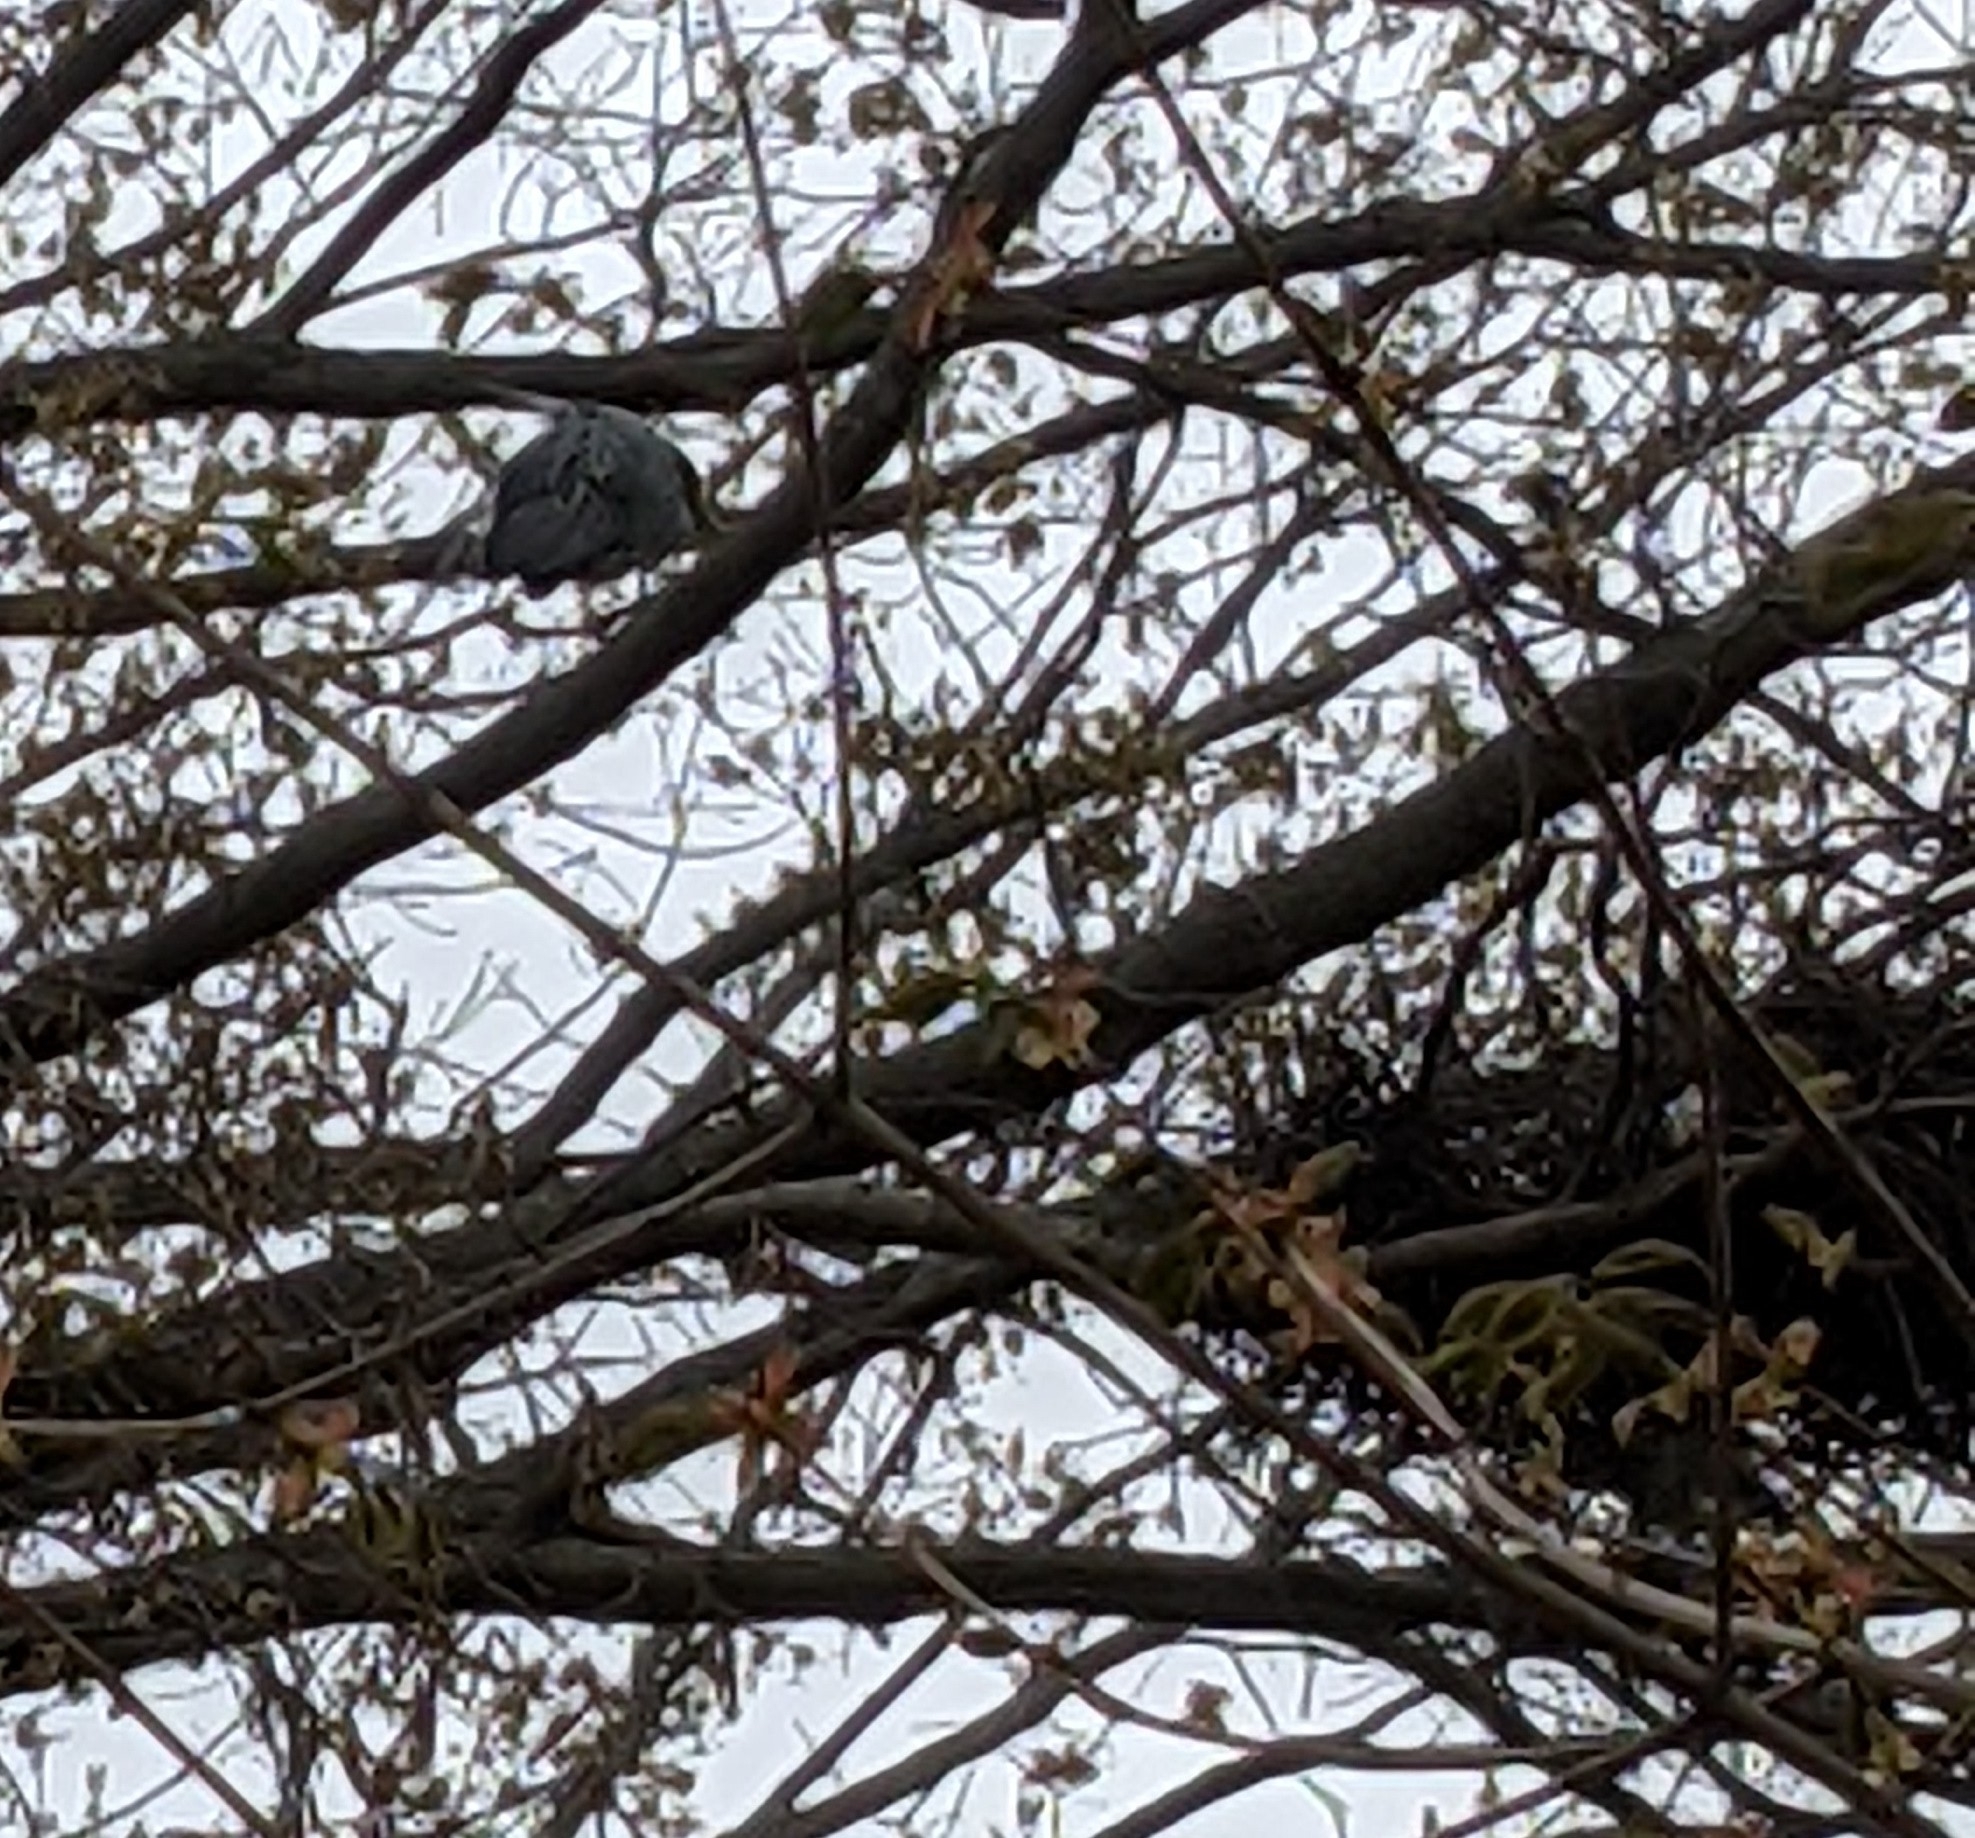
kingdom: Animalia
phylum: Chordata
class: Aves
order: Pelecaniformes
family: Ardeidae
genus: Nyctanassa
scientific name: Nyctanassa violacea
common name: Yellow-crowned night heron
